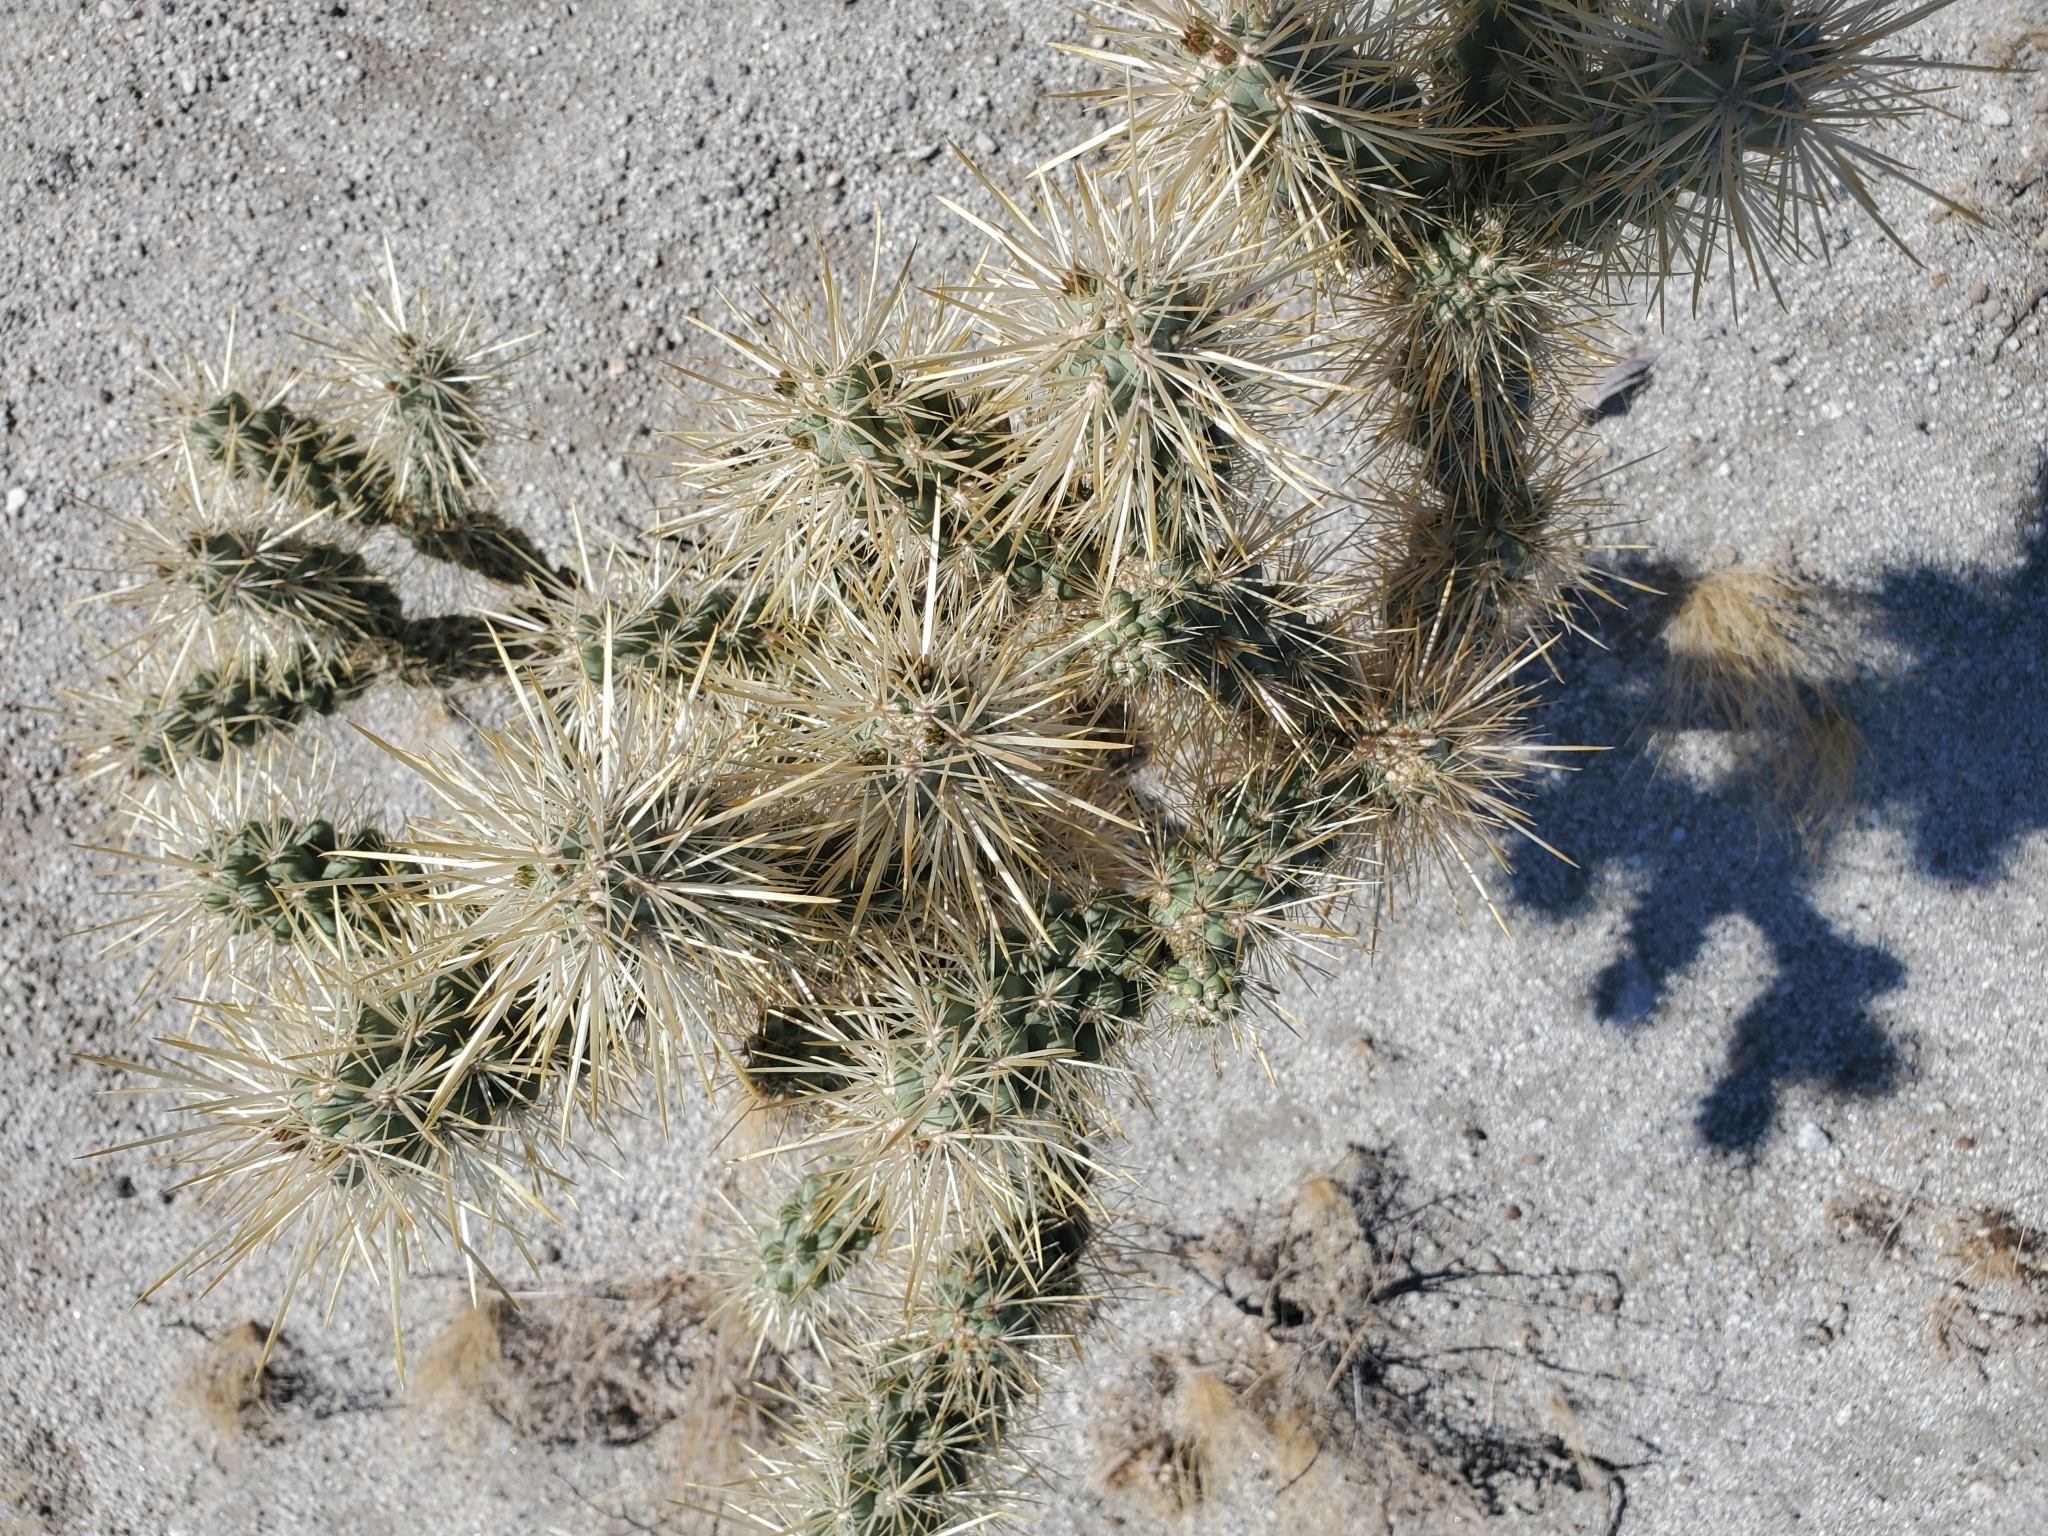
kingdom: Plantae
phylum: Tracheophyta
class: Magnoliopsida
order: Caryophyllales
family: Cactaceae
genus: Cylindropuntia
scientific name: Cylindropuntia echinocarpa
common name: Ground cholla
